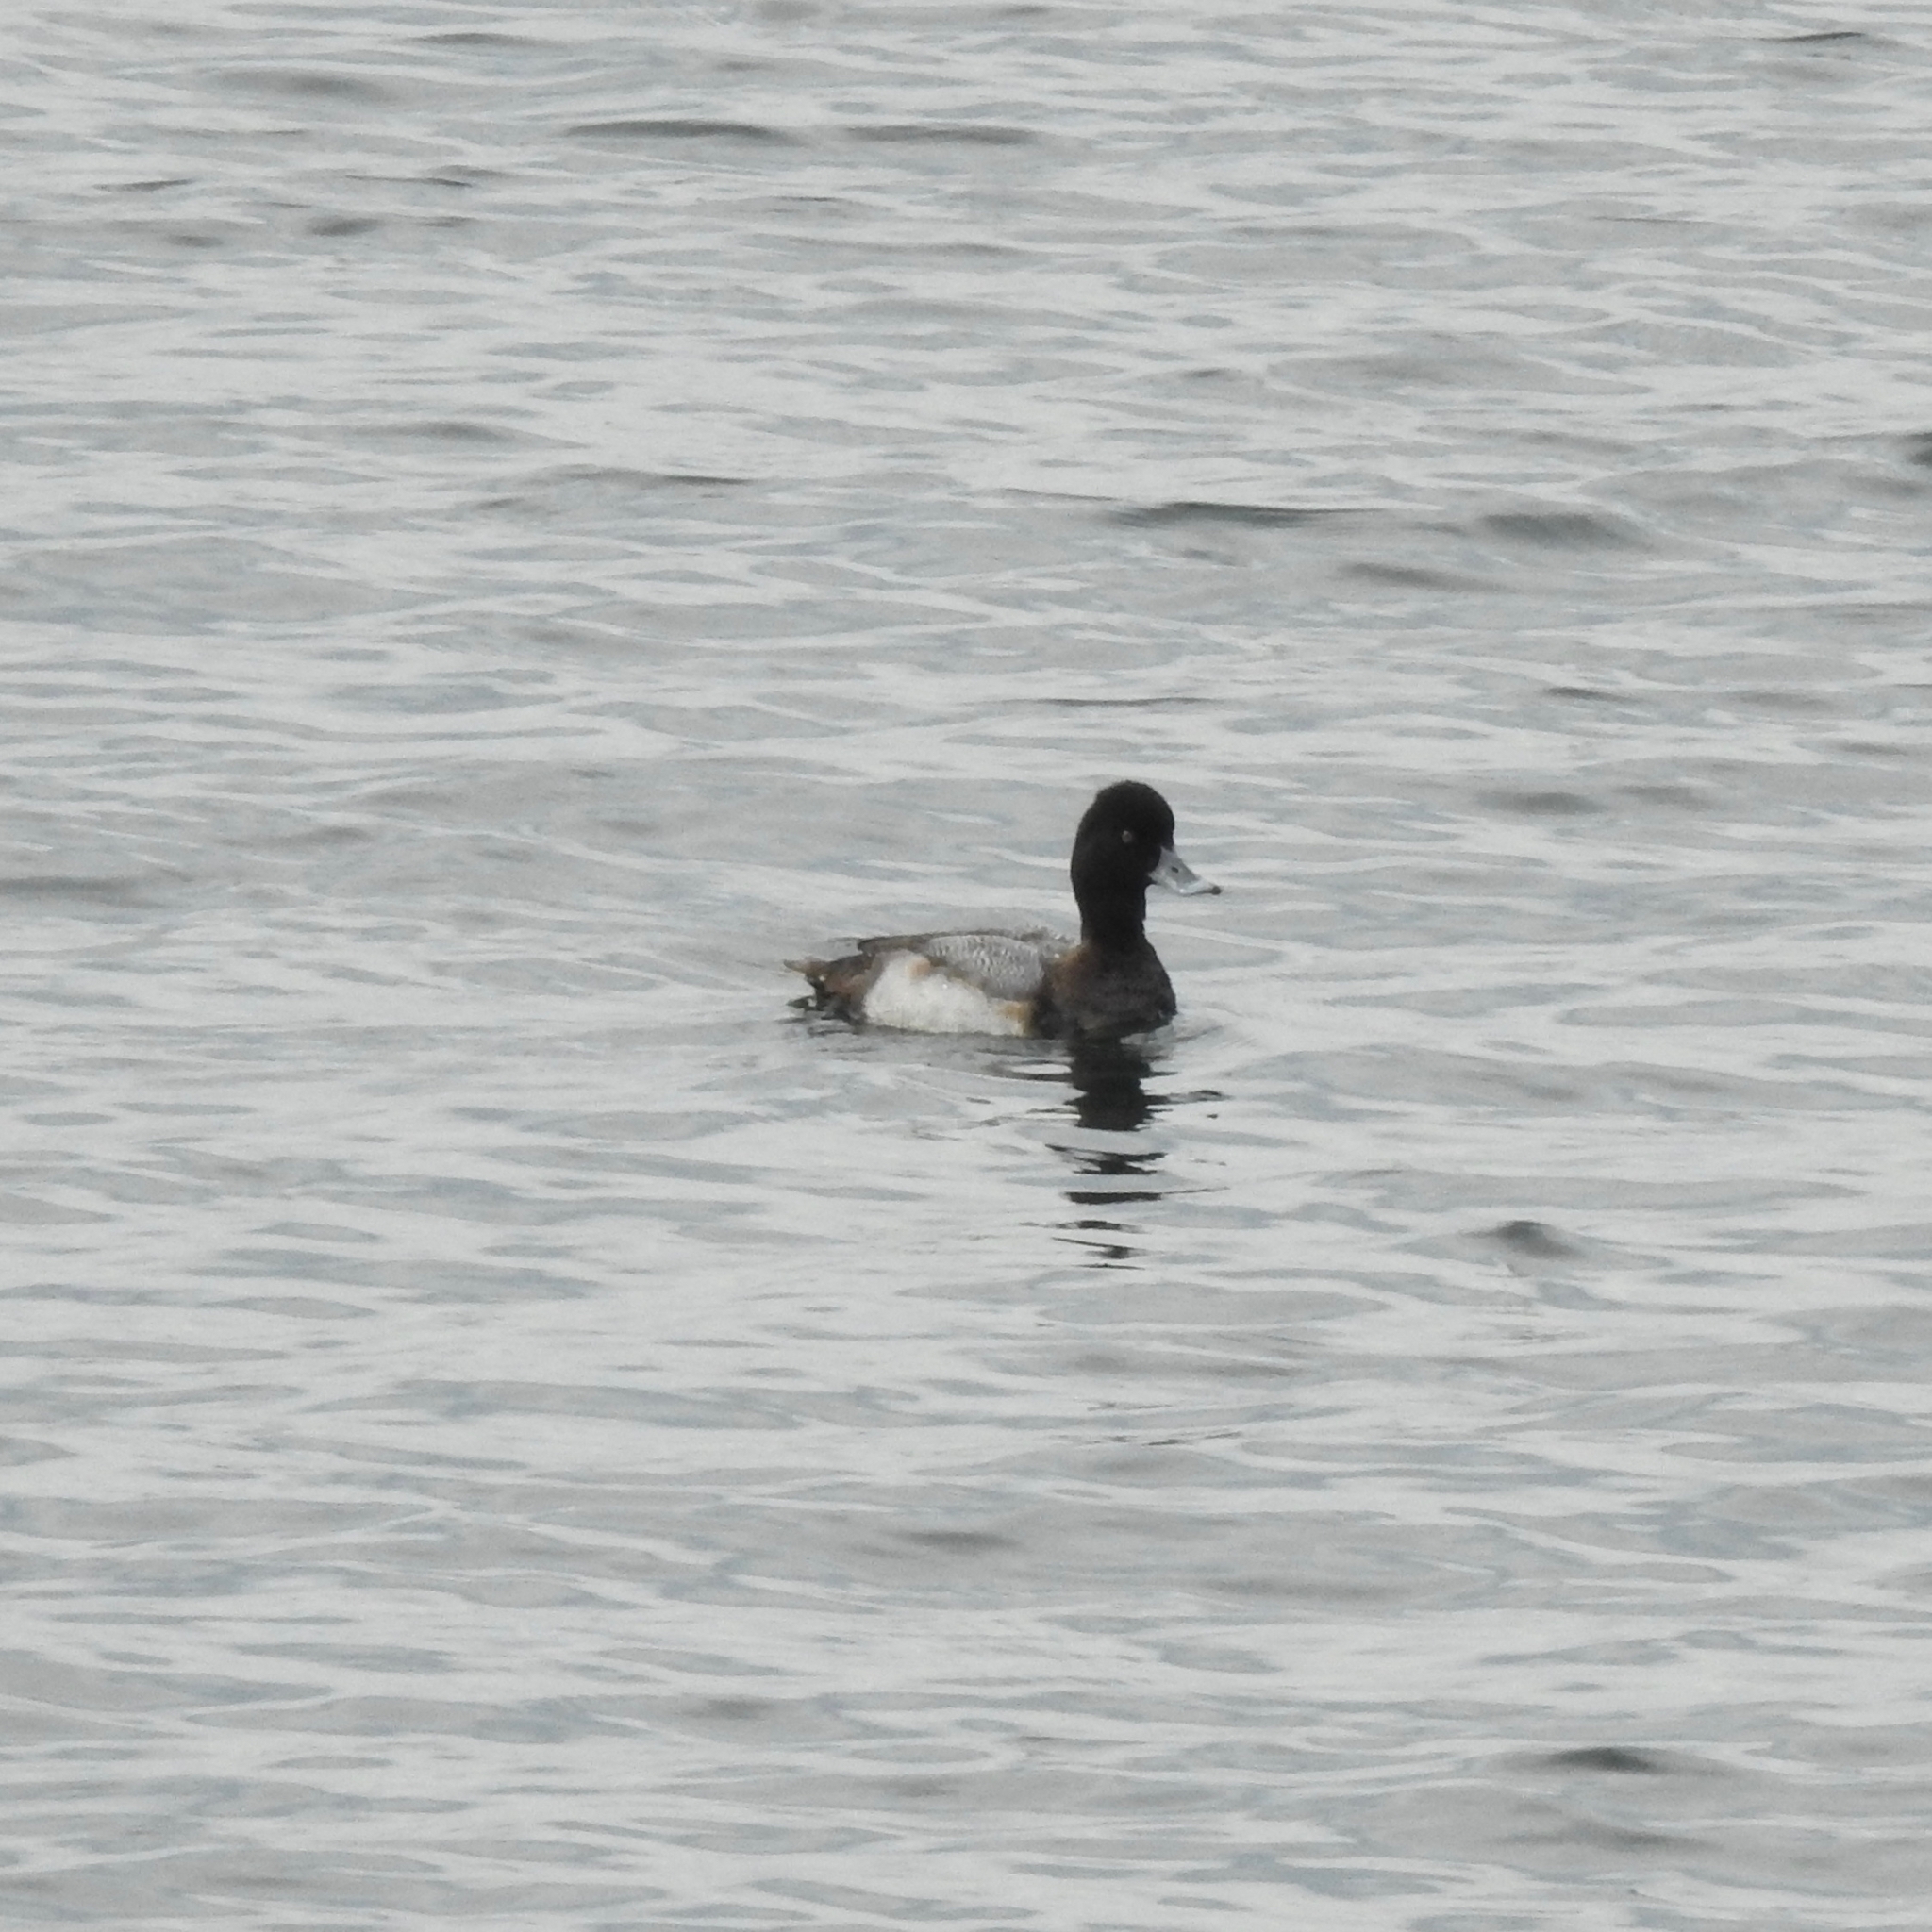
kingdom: Animalia
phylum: Chordata
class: Aves
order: Anseriformes
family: Anatidae
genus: Aythya
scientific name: Aythya affinis
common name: Lesser scaup
